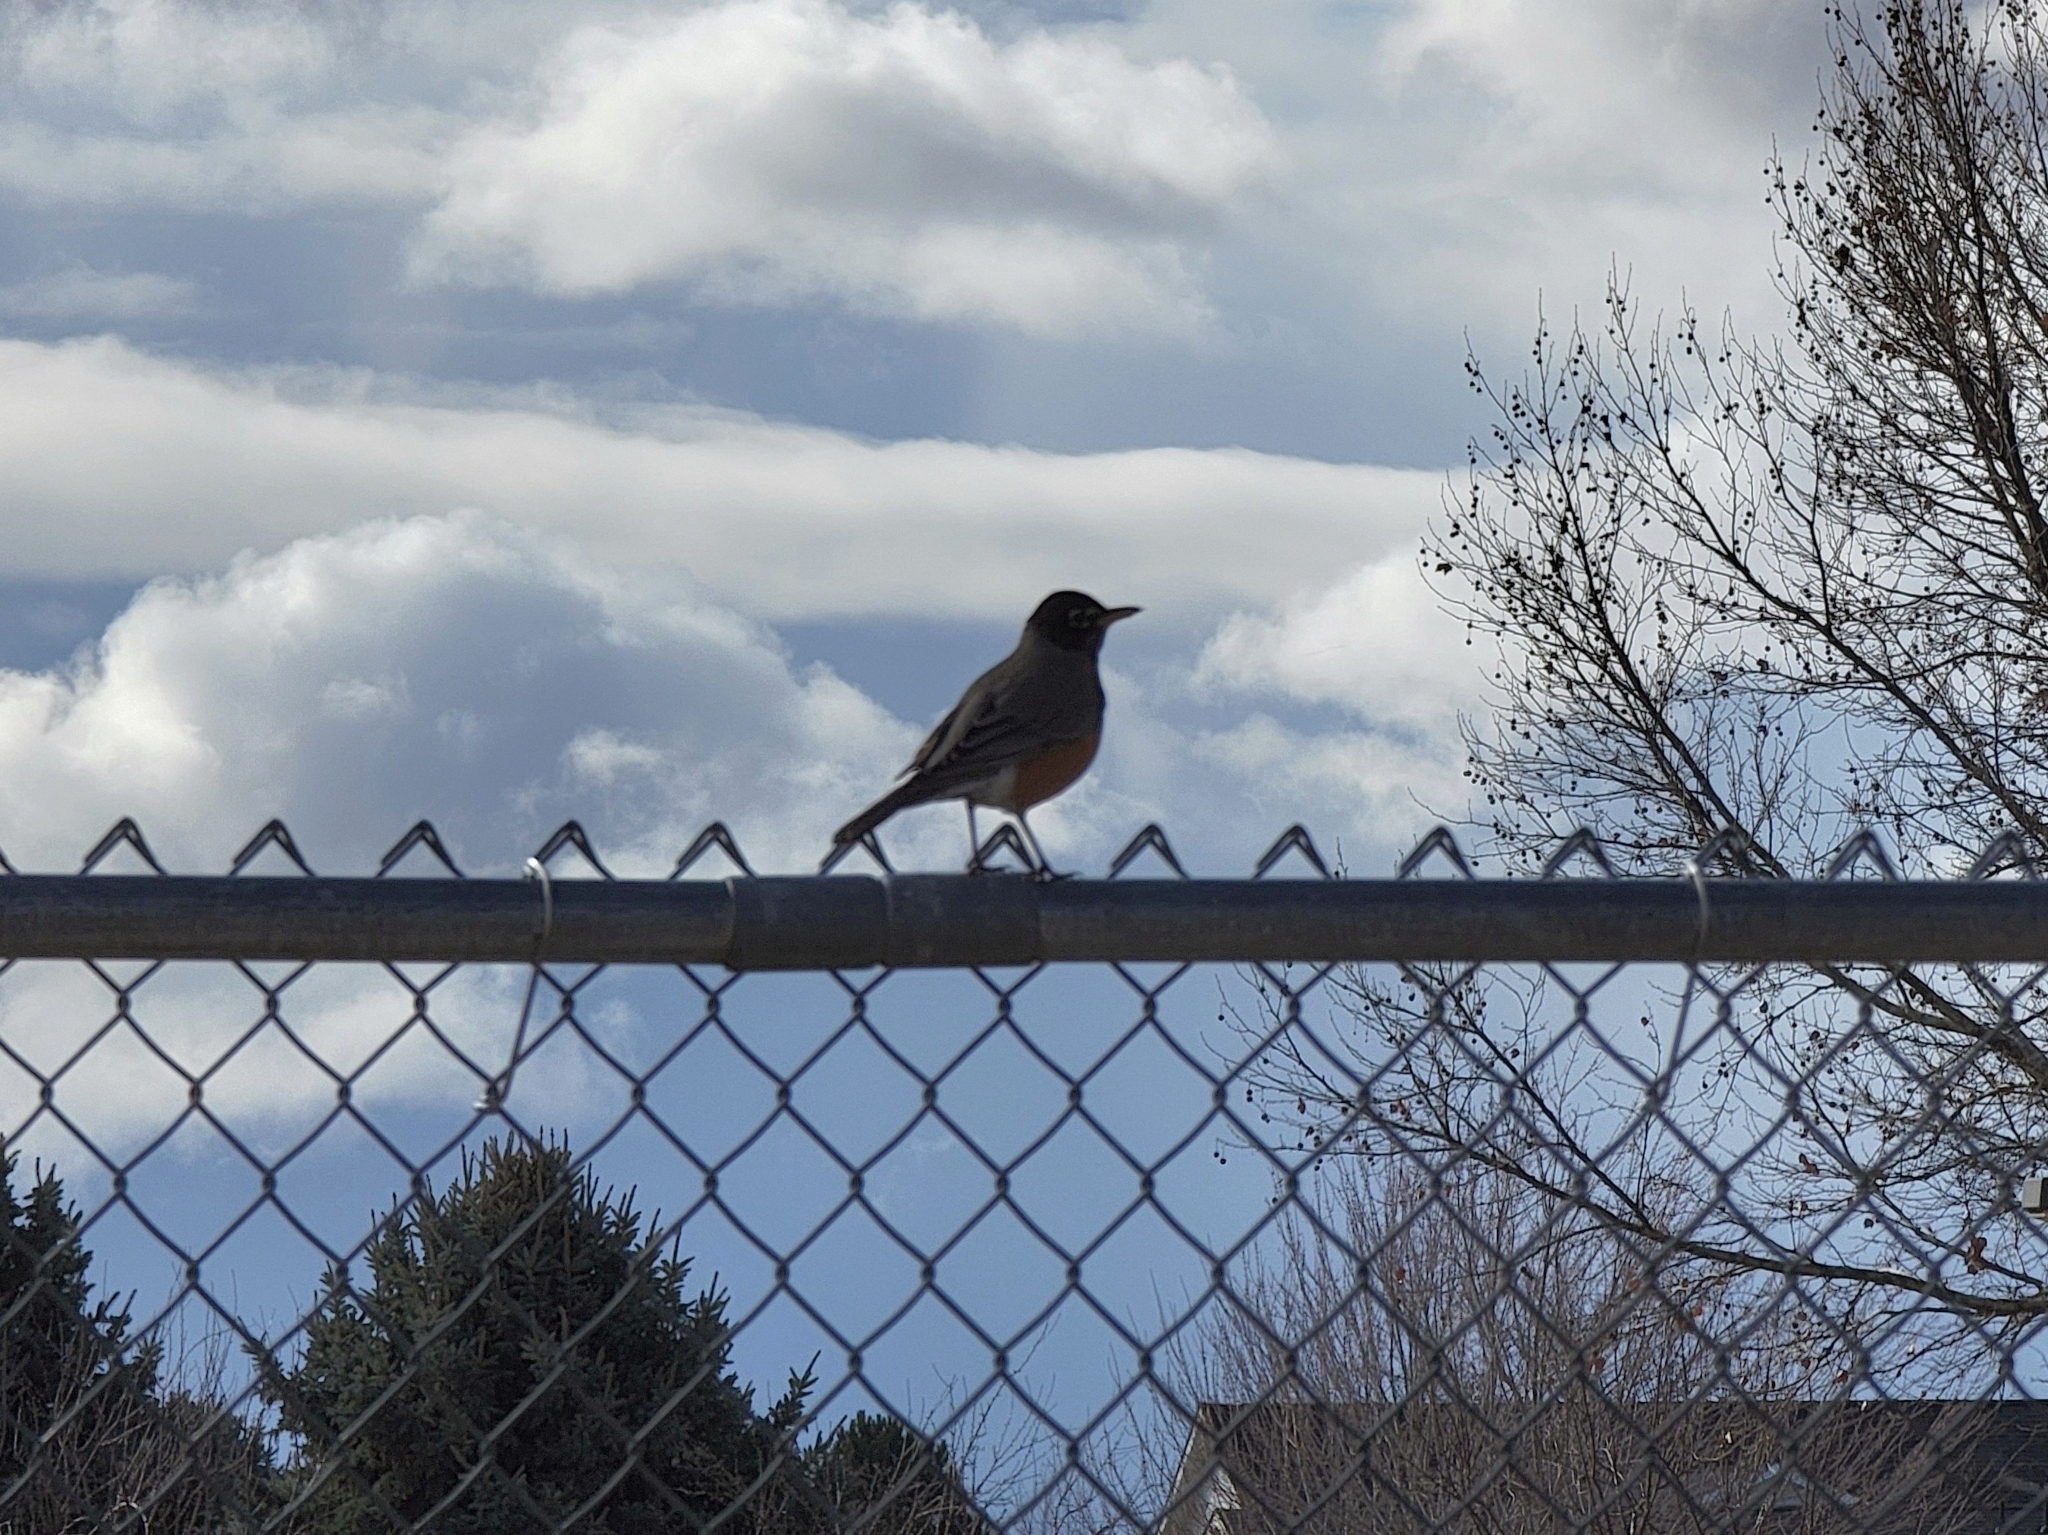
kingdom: Animalia
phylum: Chordata
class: Aves
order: Passeriformes
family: Turdidae
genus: Turdus
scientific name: Turdus migratorius
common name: American robin
